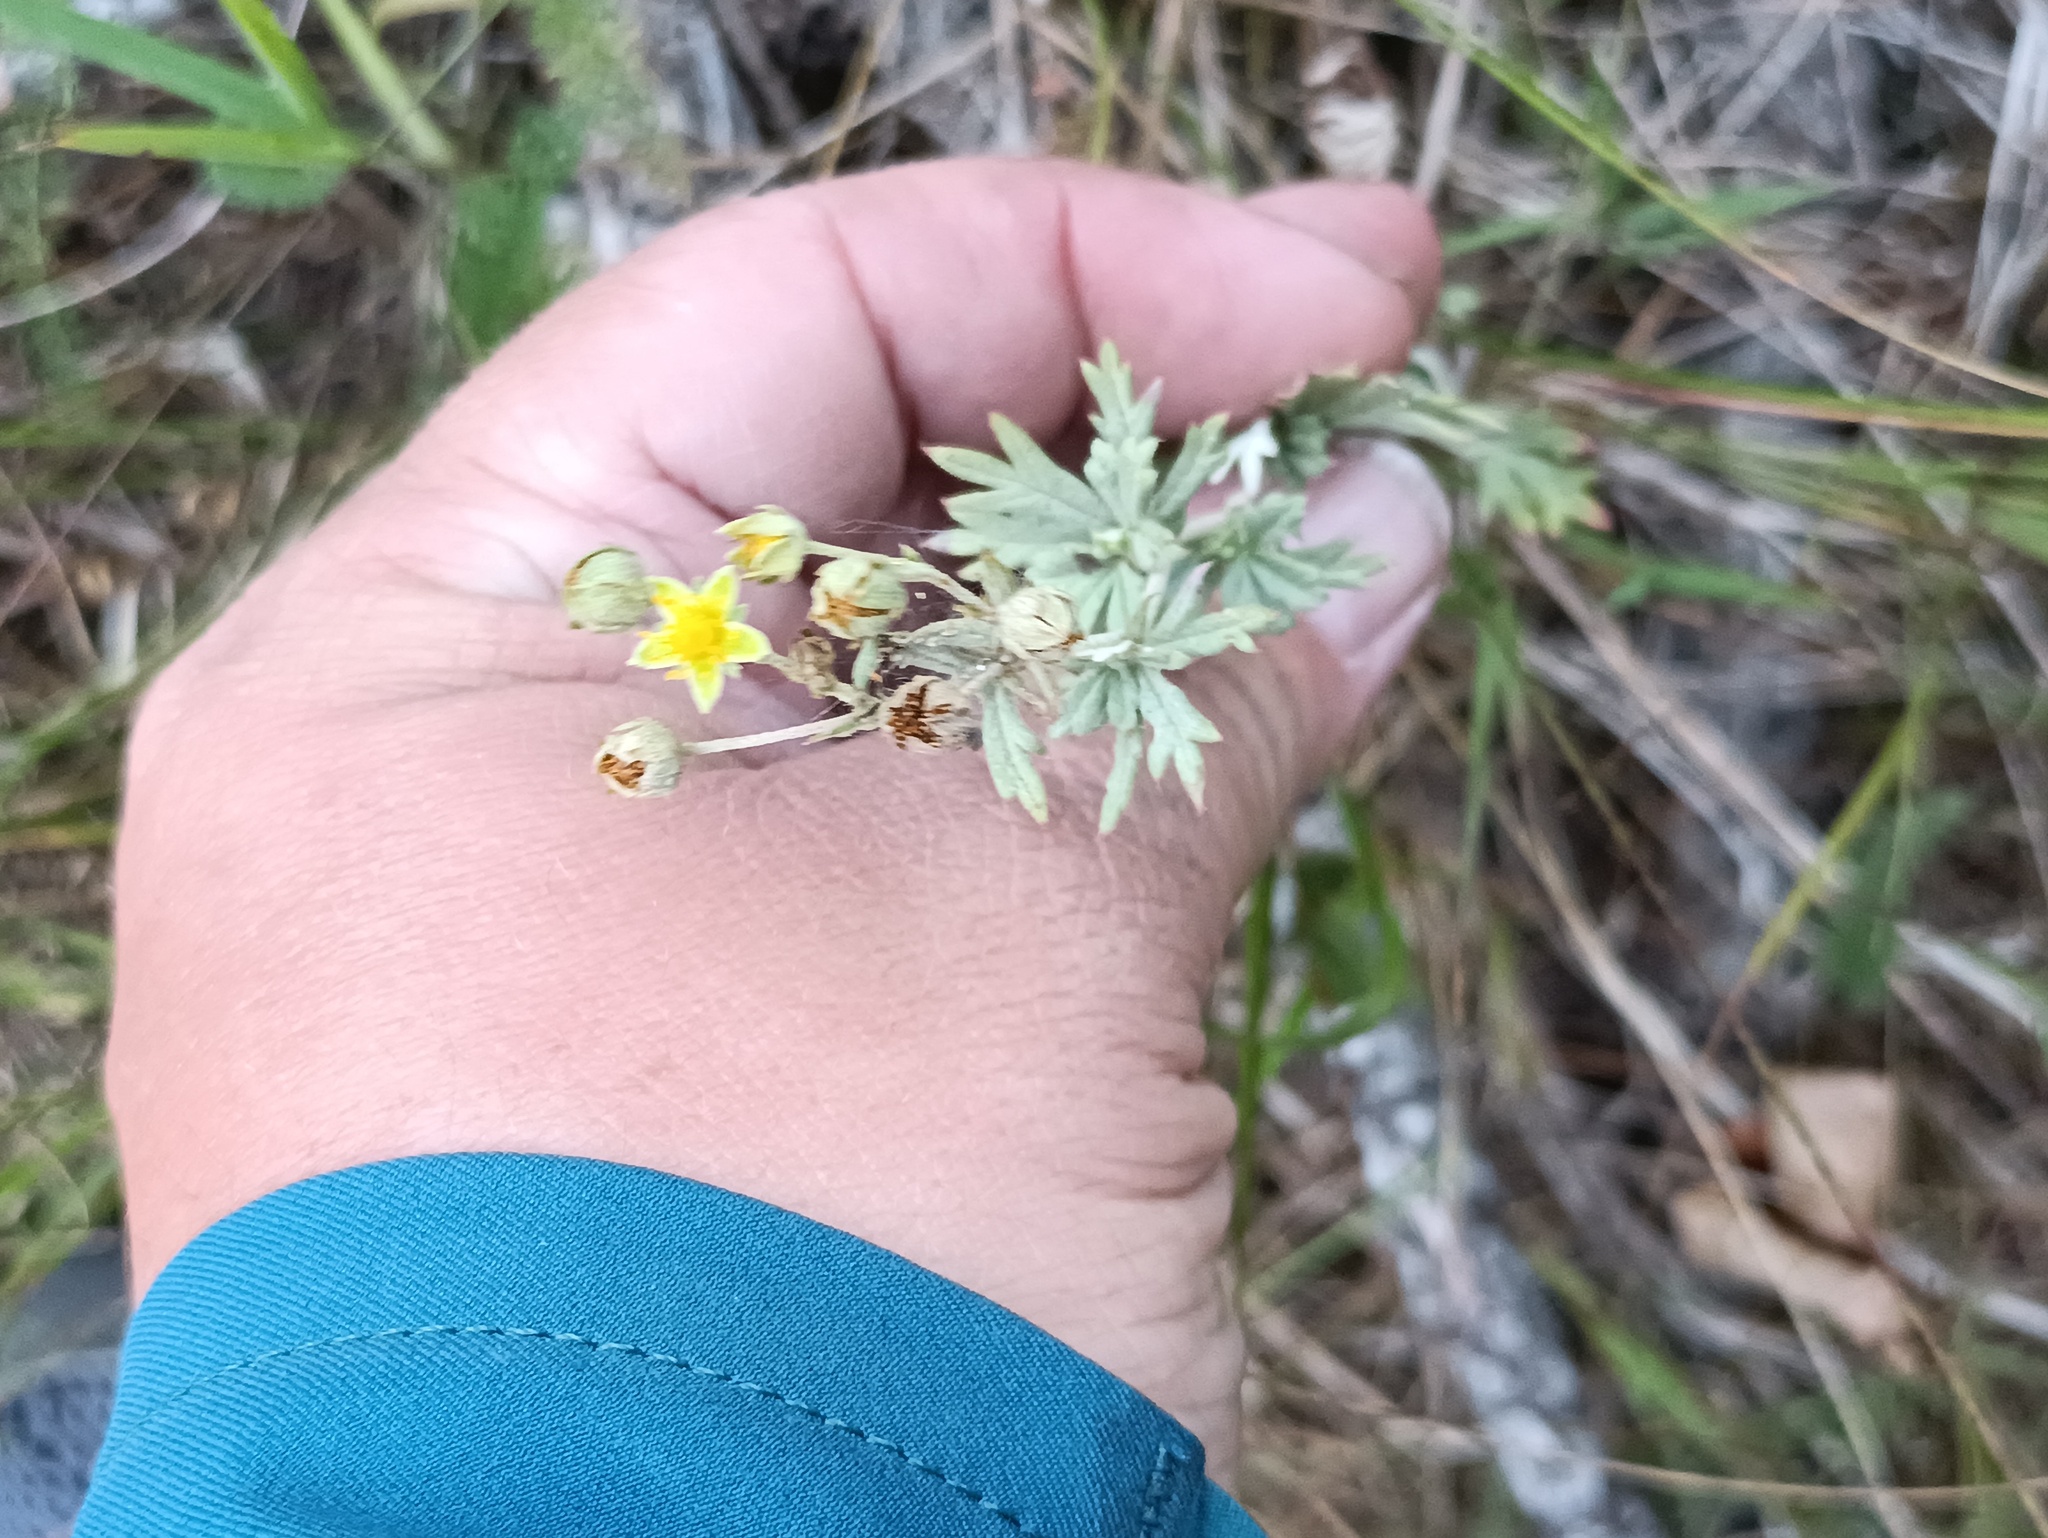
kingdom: Plantae
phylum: Tracheophyta
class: Magnoliopsida
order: Rosales
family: Rosaceae
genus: Potentilla
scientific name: Potentilla argentea
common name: Hoary cinquefoil
